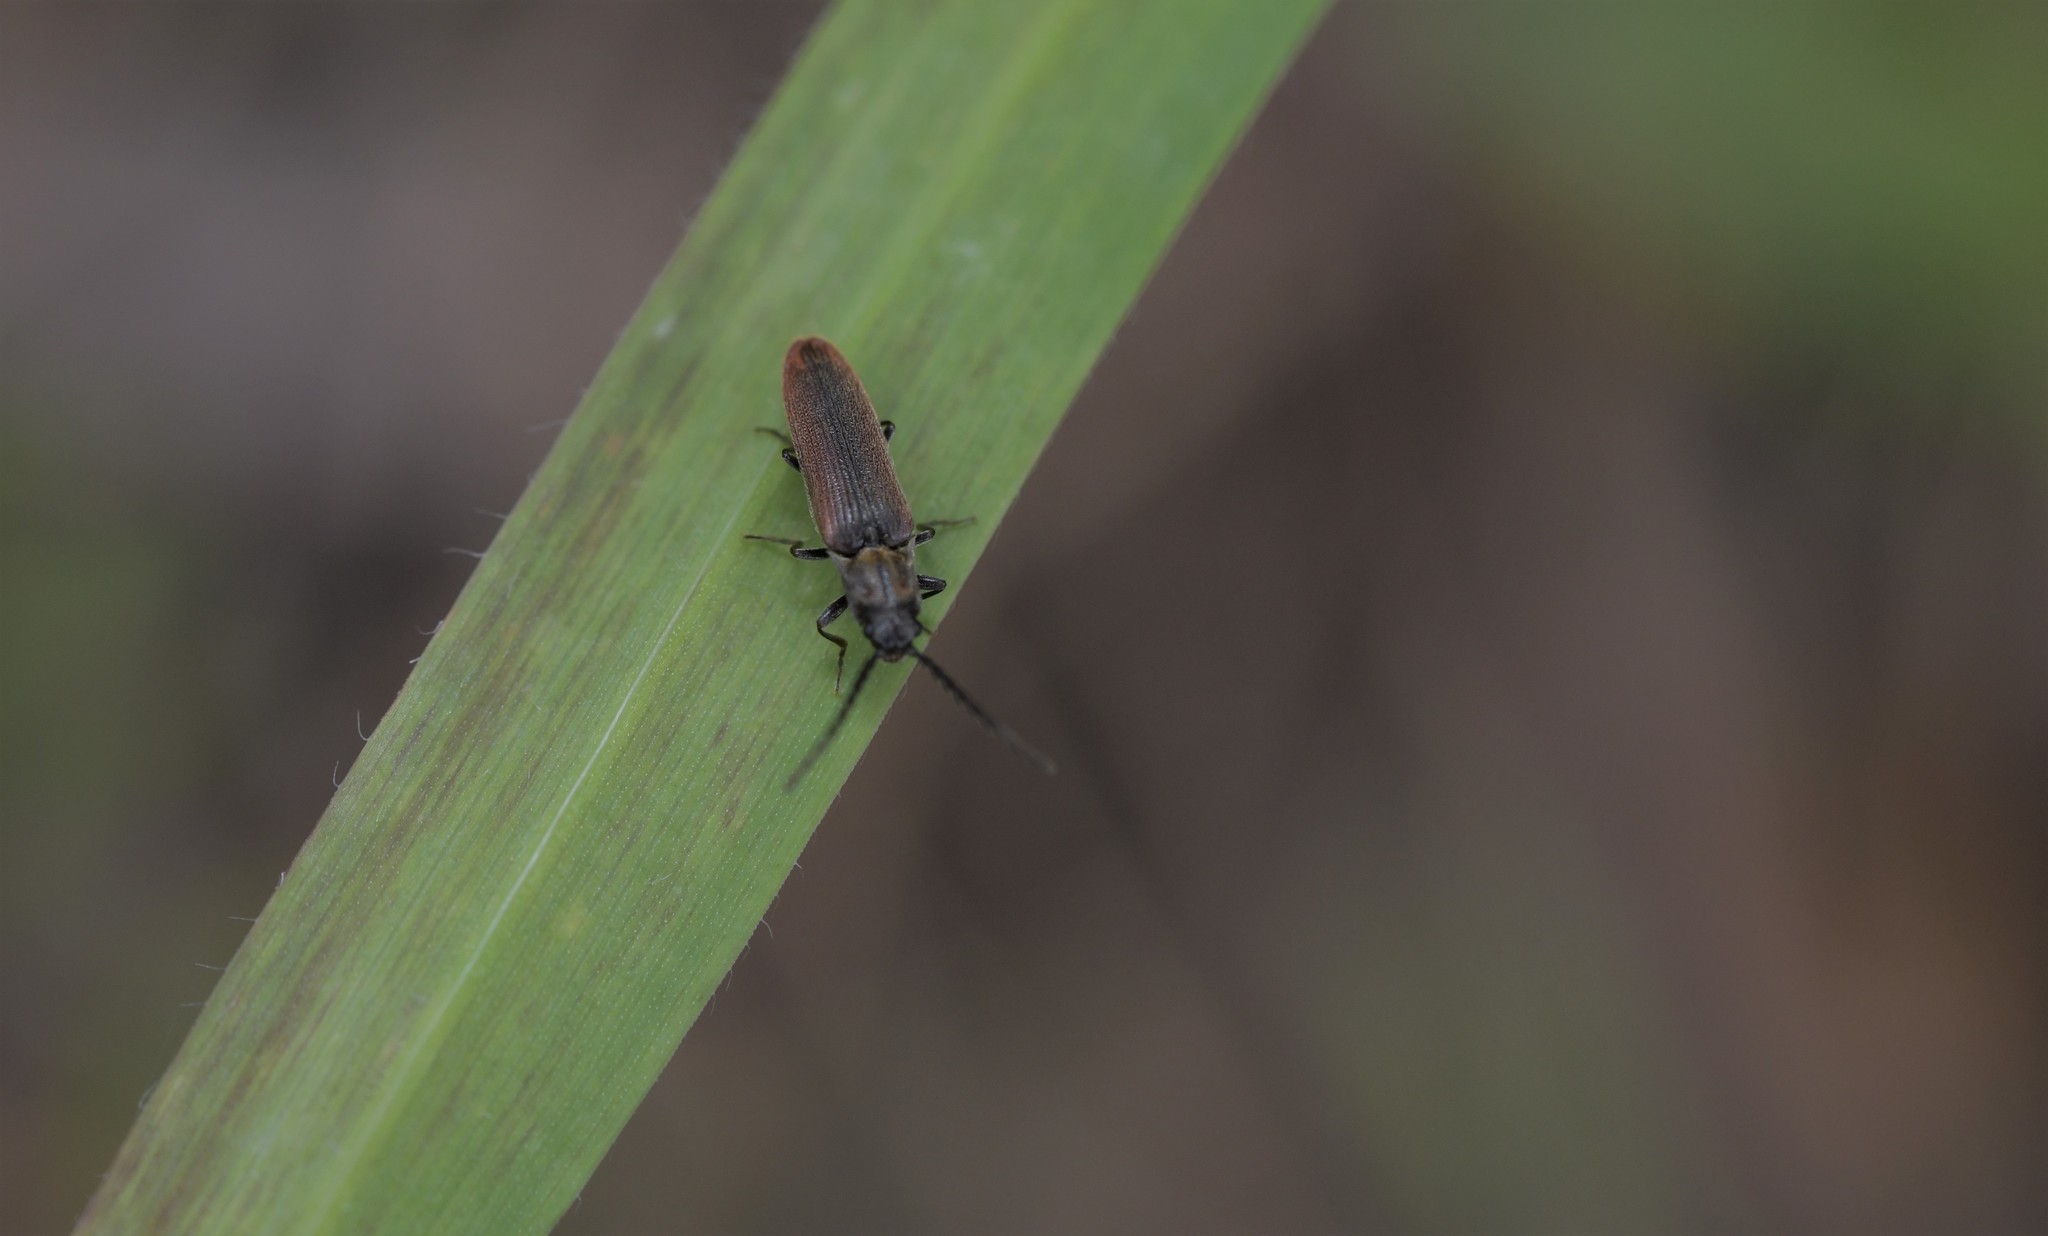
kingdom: Animalia
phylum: Arthropoda
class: Insecta
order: Coleoptera
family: Elateridae
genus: Campylomorphus
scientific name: Campylomorphus homalisinus
